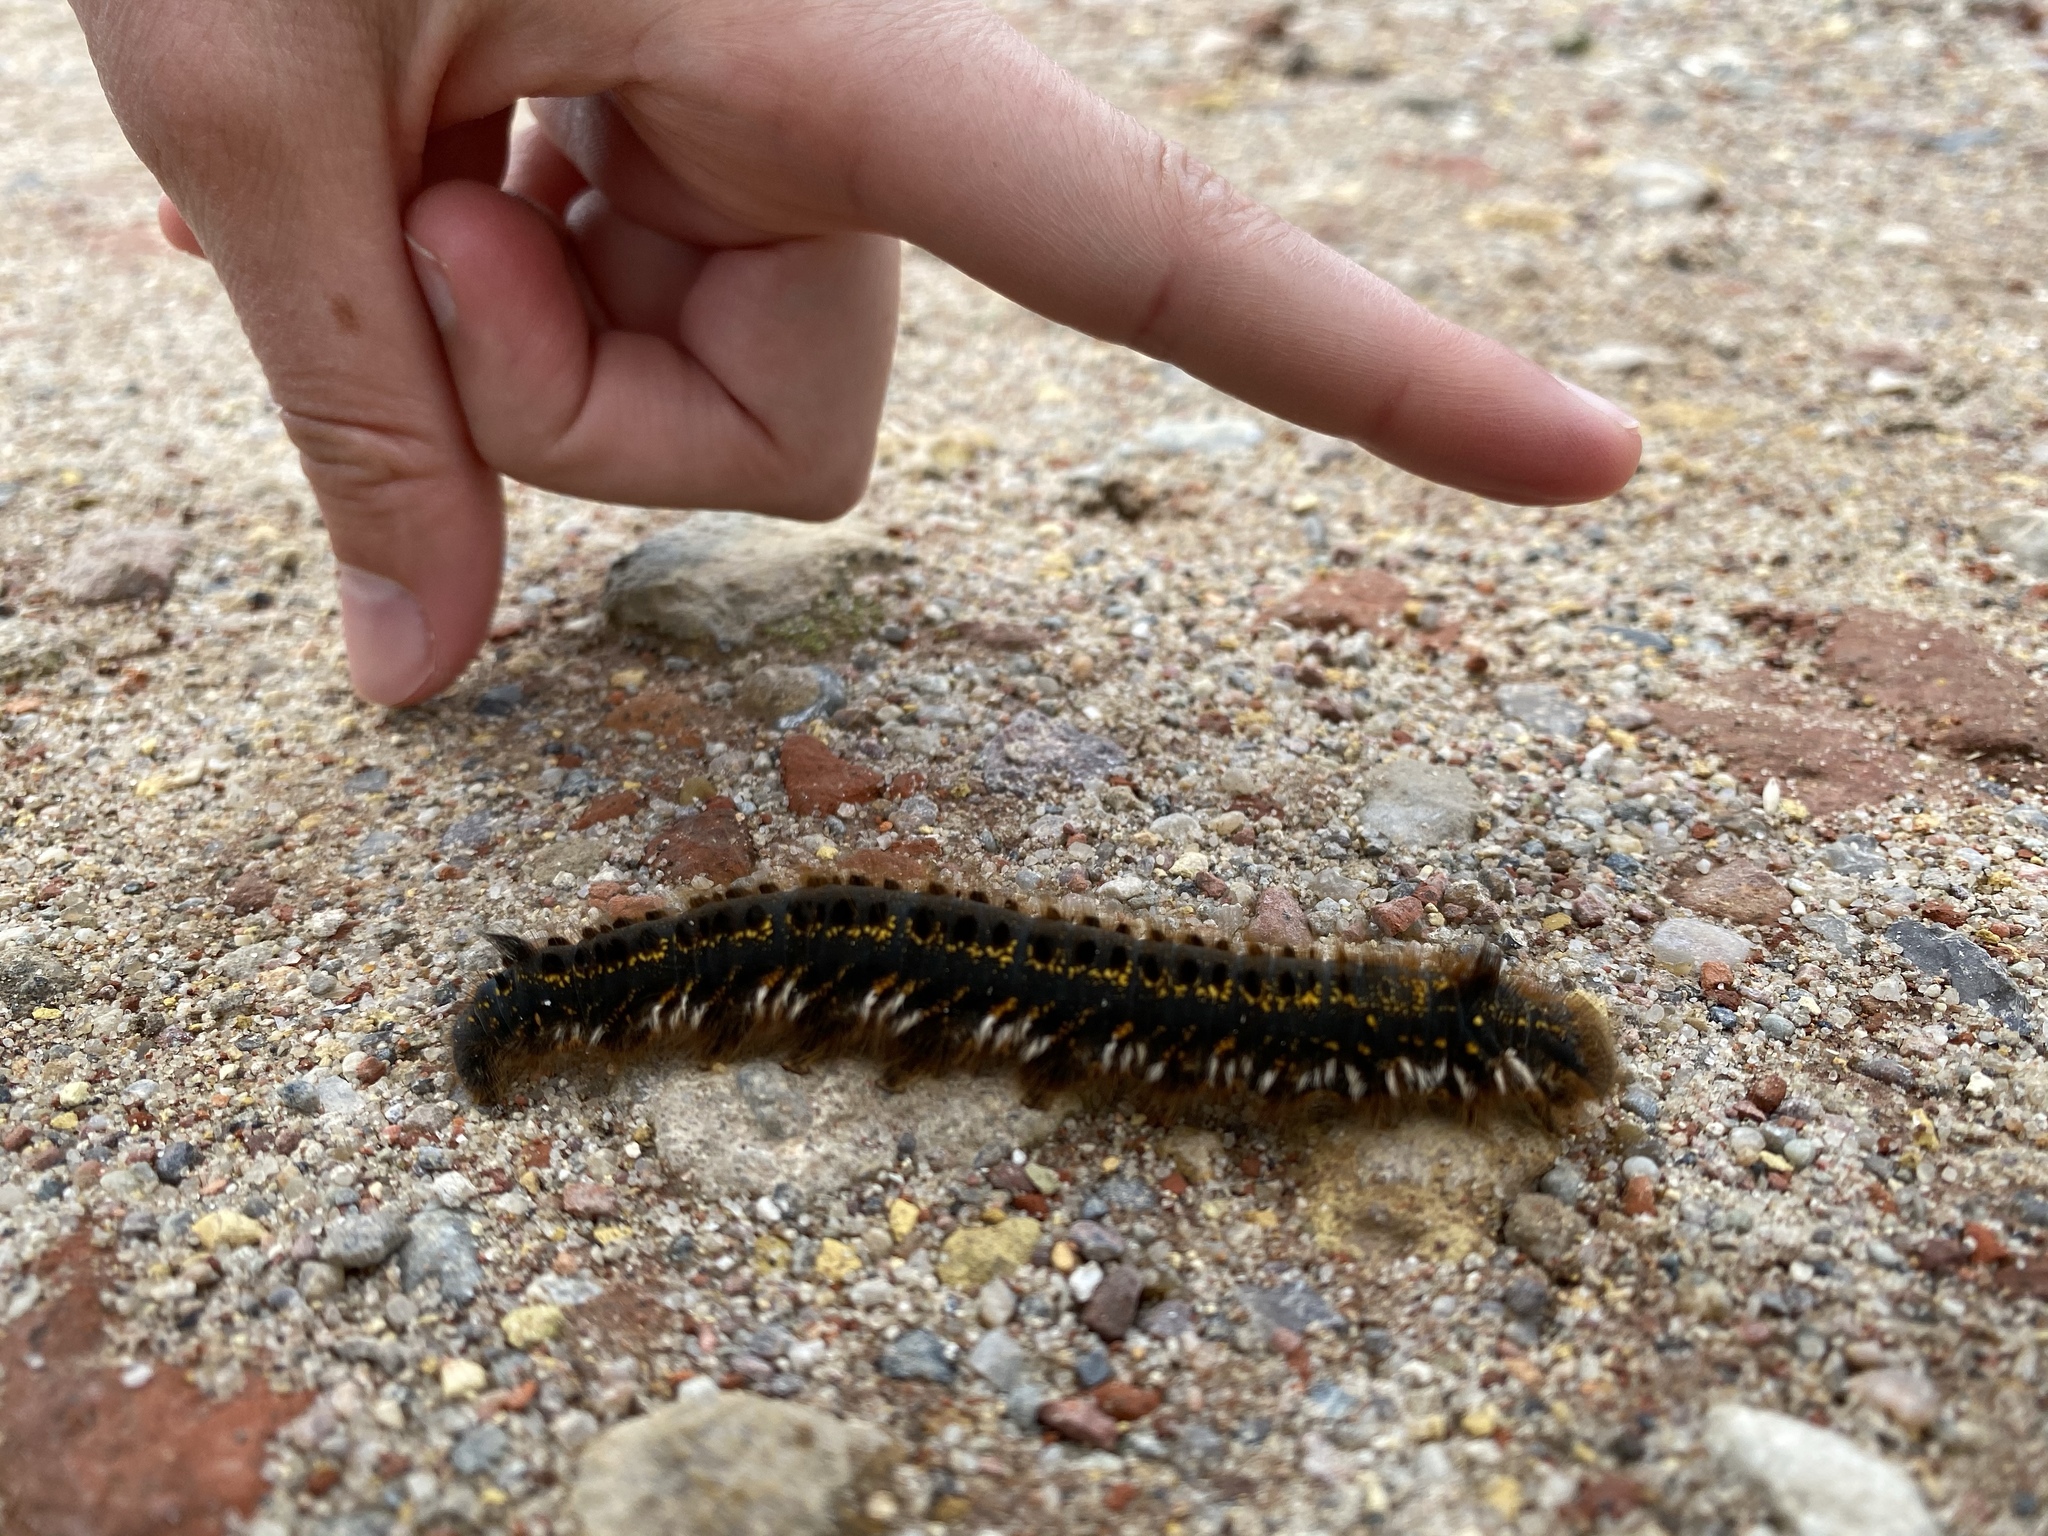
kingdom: Animalia
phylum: Arthropoda
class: Insecta
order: Lepidoptera
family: Lasiocampidae
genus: Euthrix
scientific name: Euthrix potatoria
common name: Drinker
